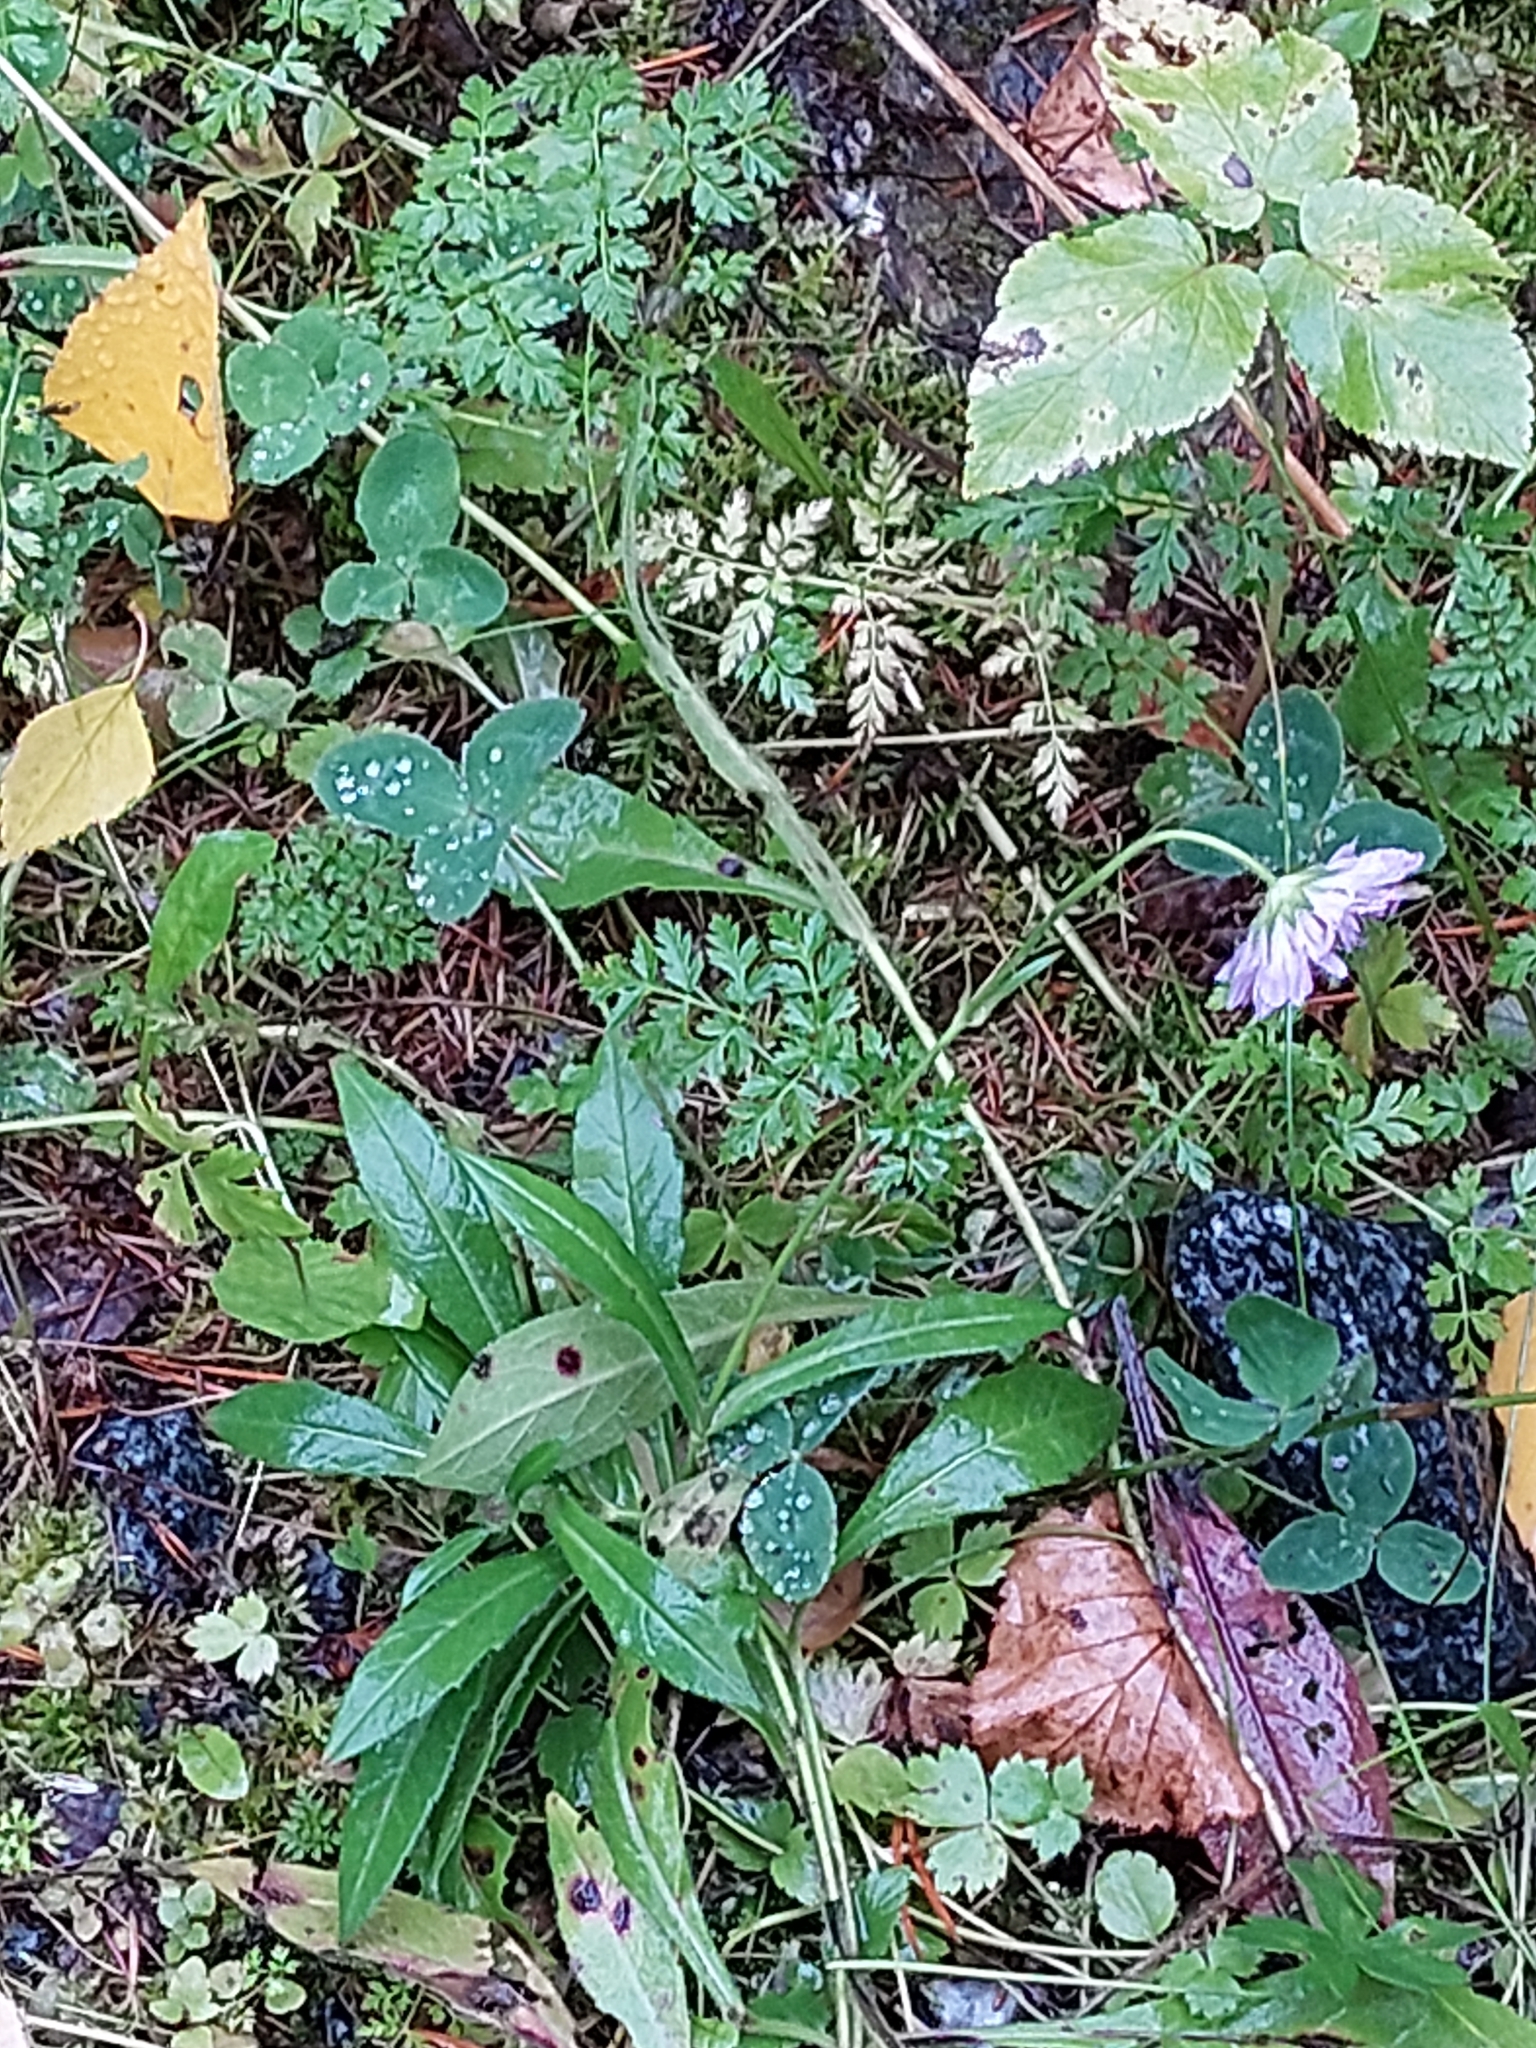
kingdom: Plantae
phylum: Tracheophyta
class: Magnoliopsida
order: Dipsacales
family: Caprifoliaceae
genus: Knautia
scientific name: Knautia arvensis
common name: Field scabiosa
